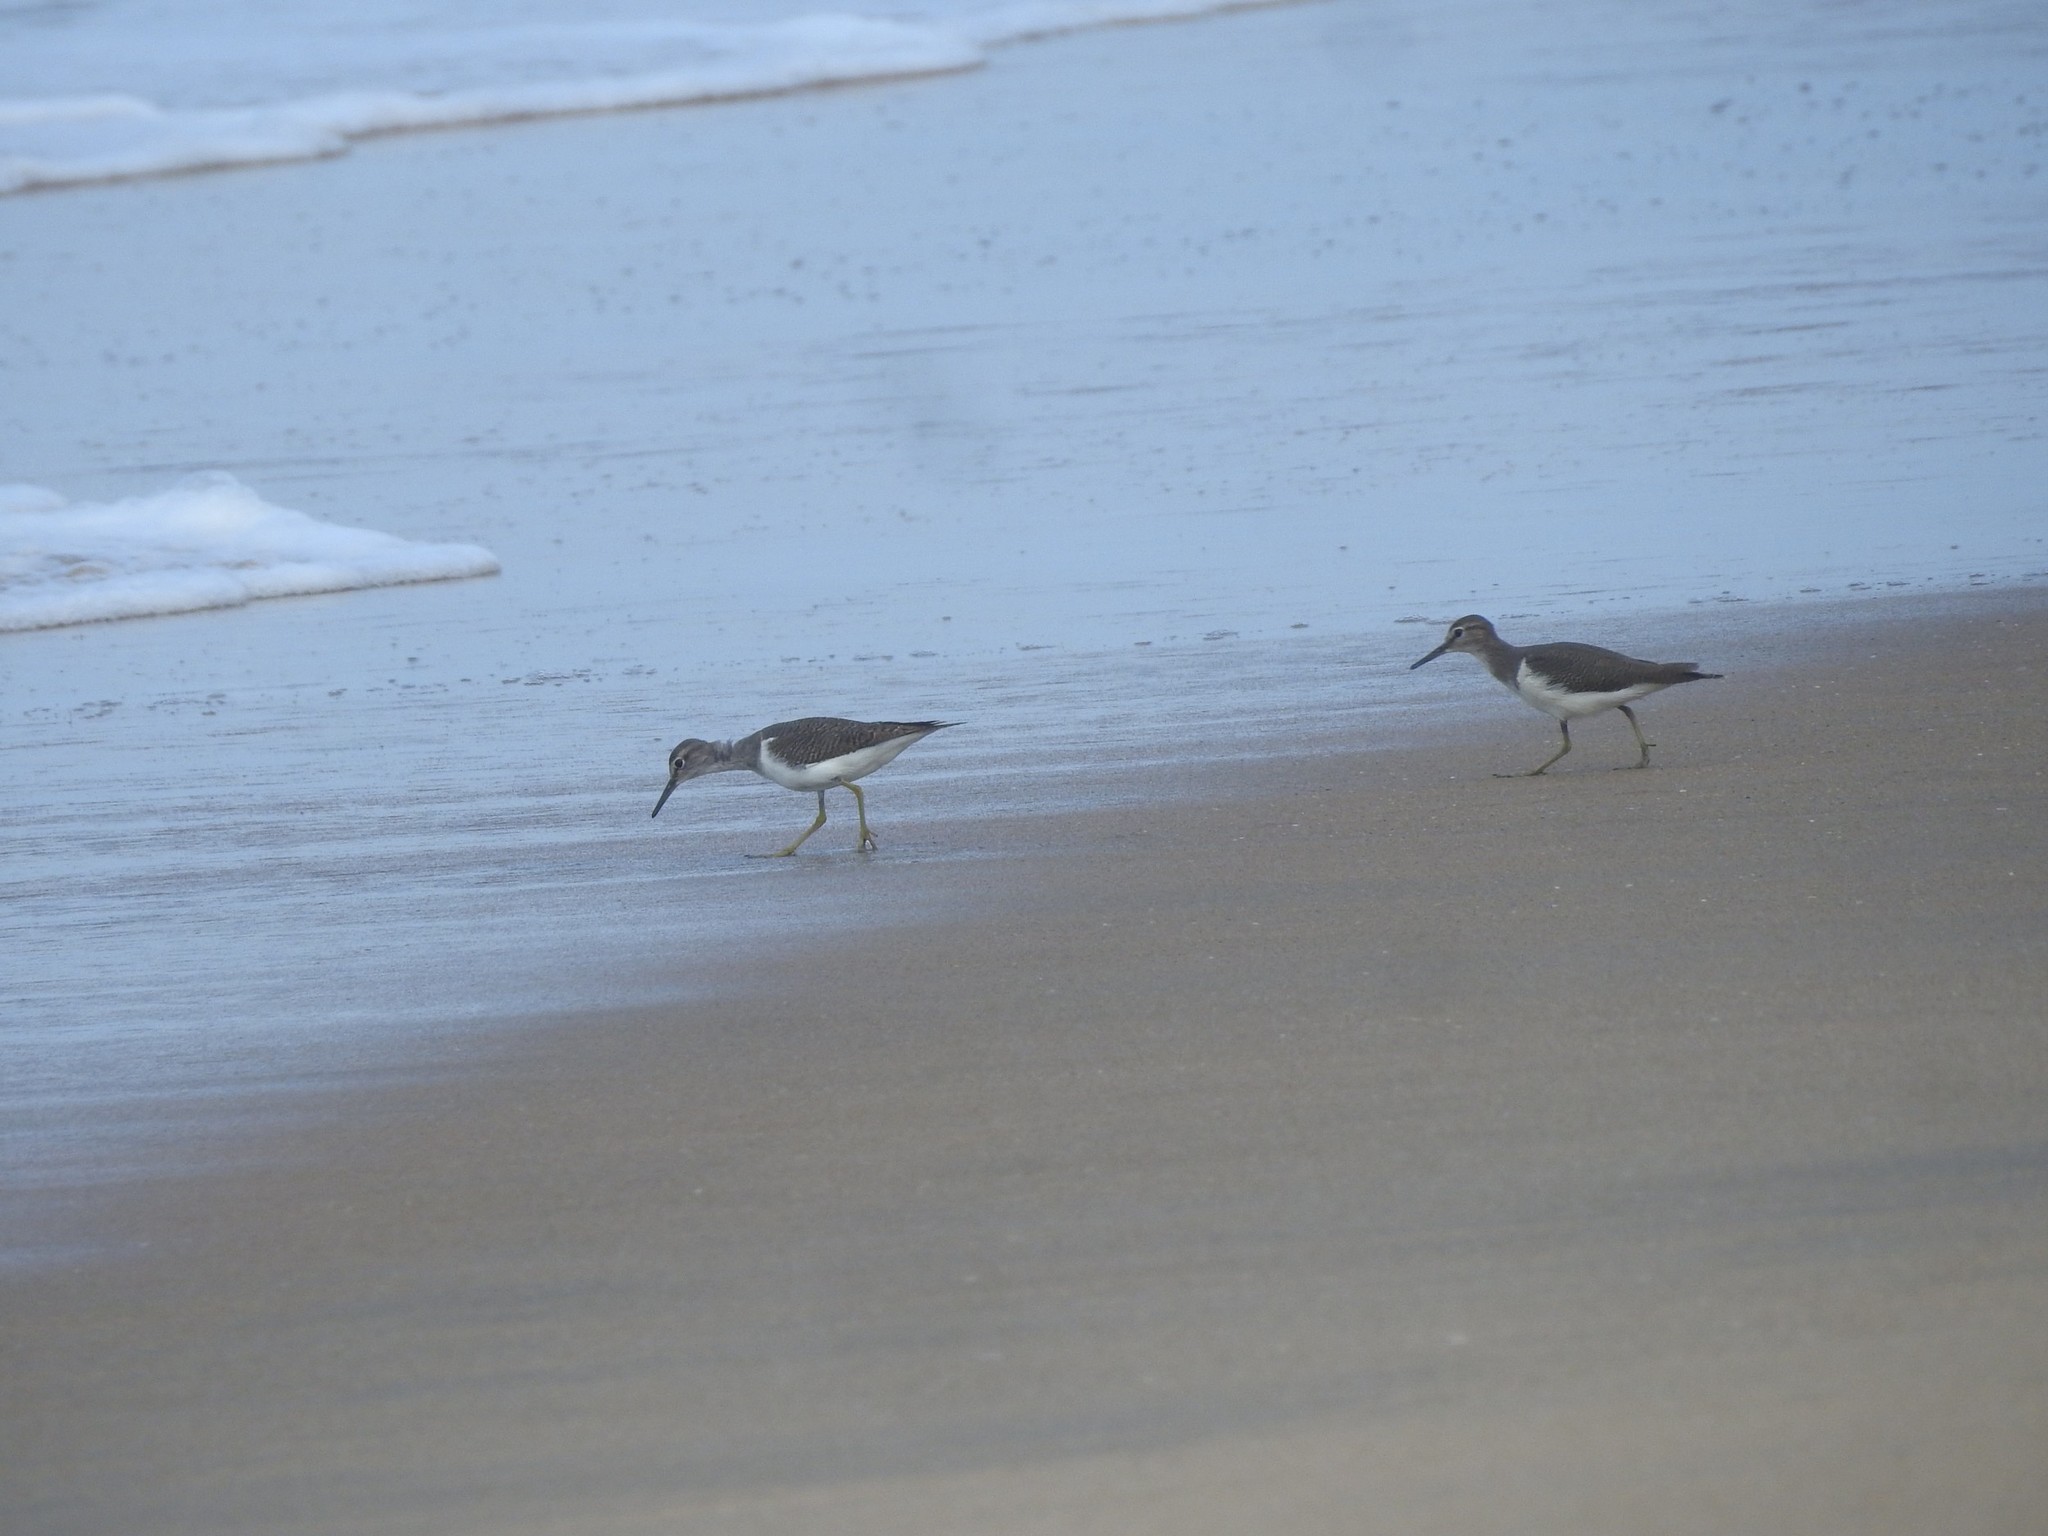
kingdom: Animalia
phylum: Chordata
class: Aves
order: Charadriiformes
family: Scolopacidae
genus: Actitis
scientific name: Actitis hypoleucos
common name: Common sandpiper
